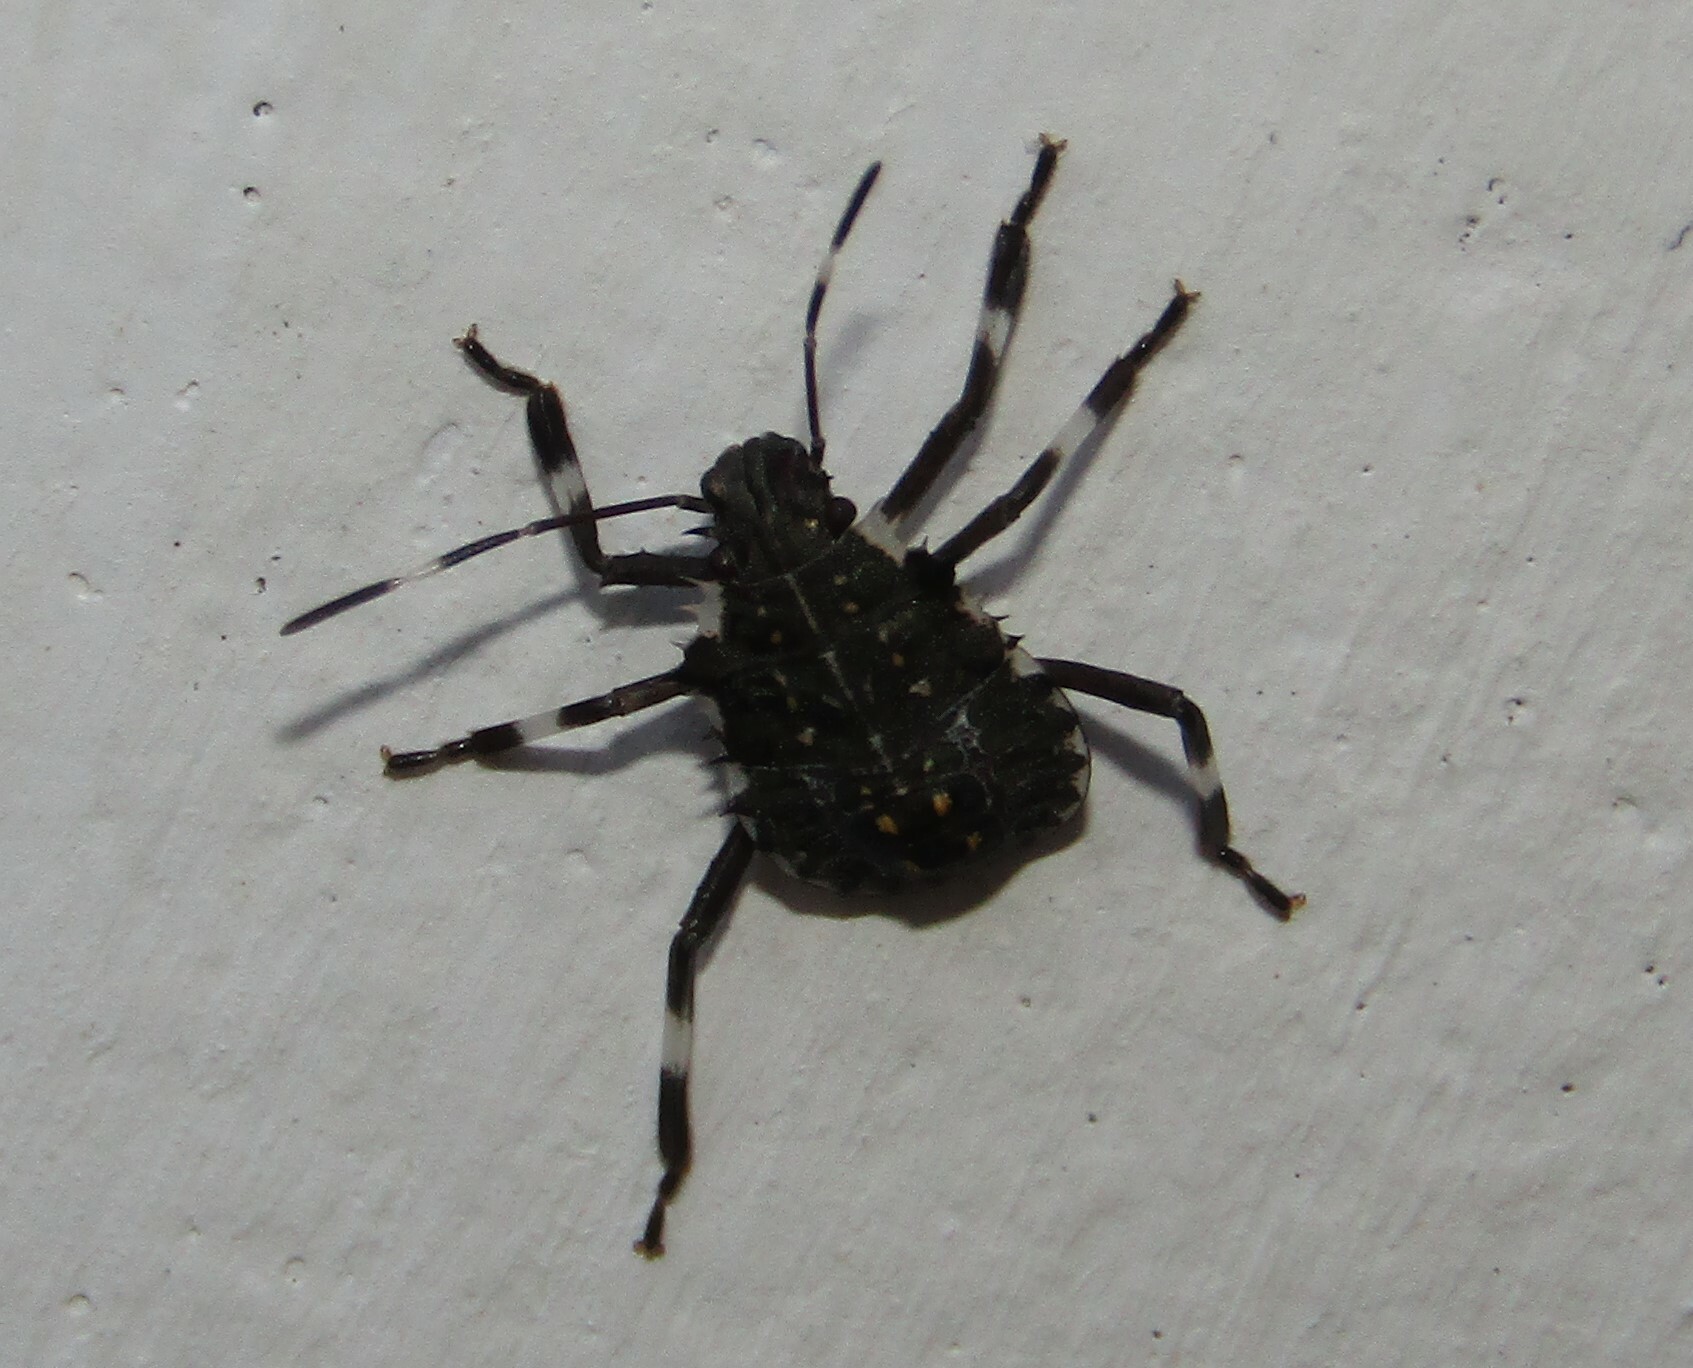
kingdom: Animalia
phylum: Arthropoda
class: Insecta
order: Hemiptera
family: Pentatomidae
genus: Halyomorpha
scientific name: Halyomorpha halys
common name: Brown marmorated stink bug
